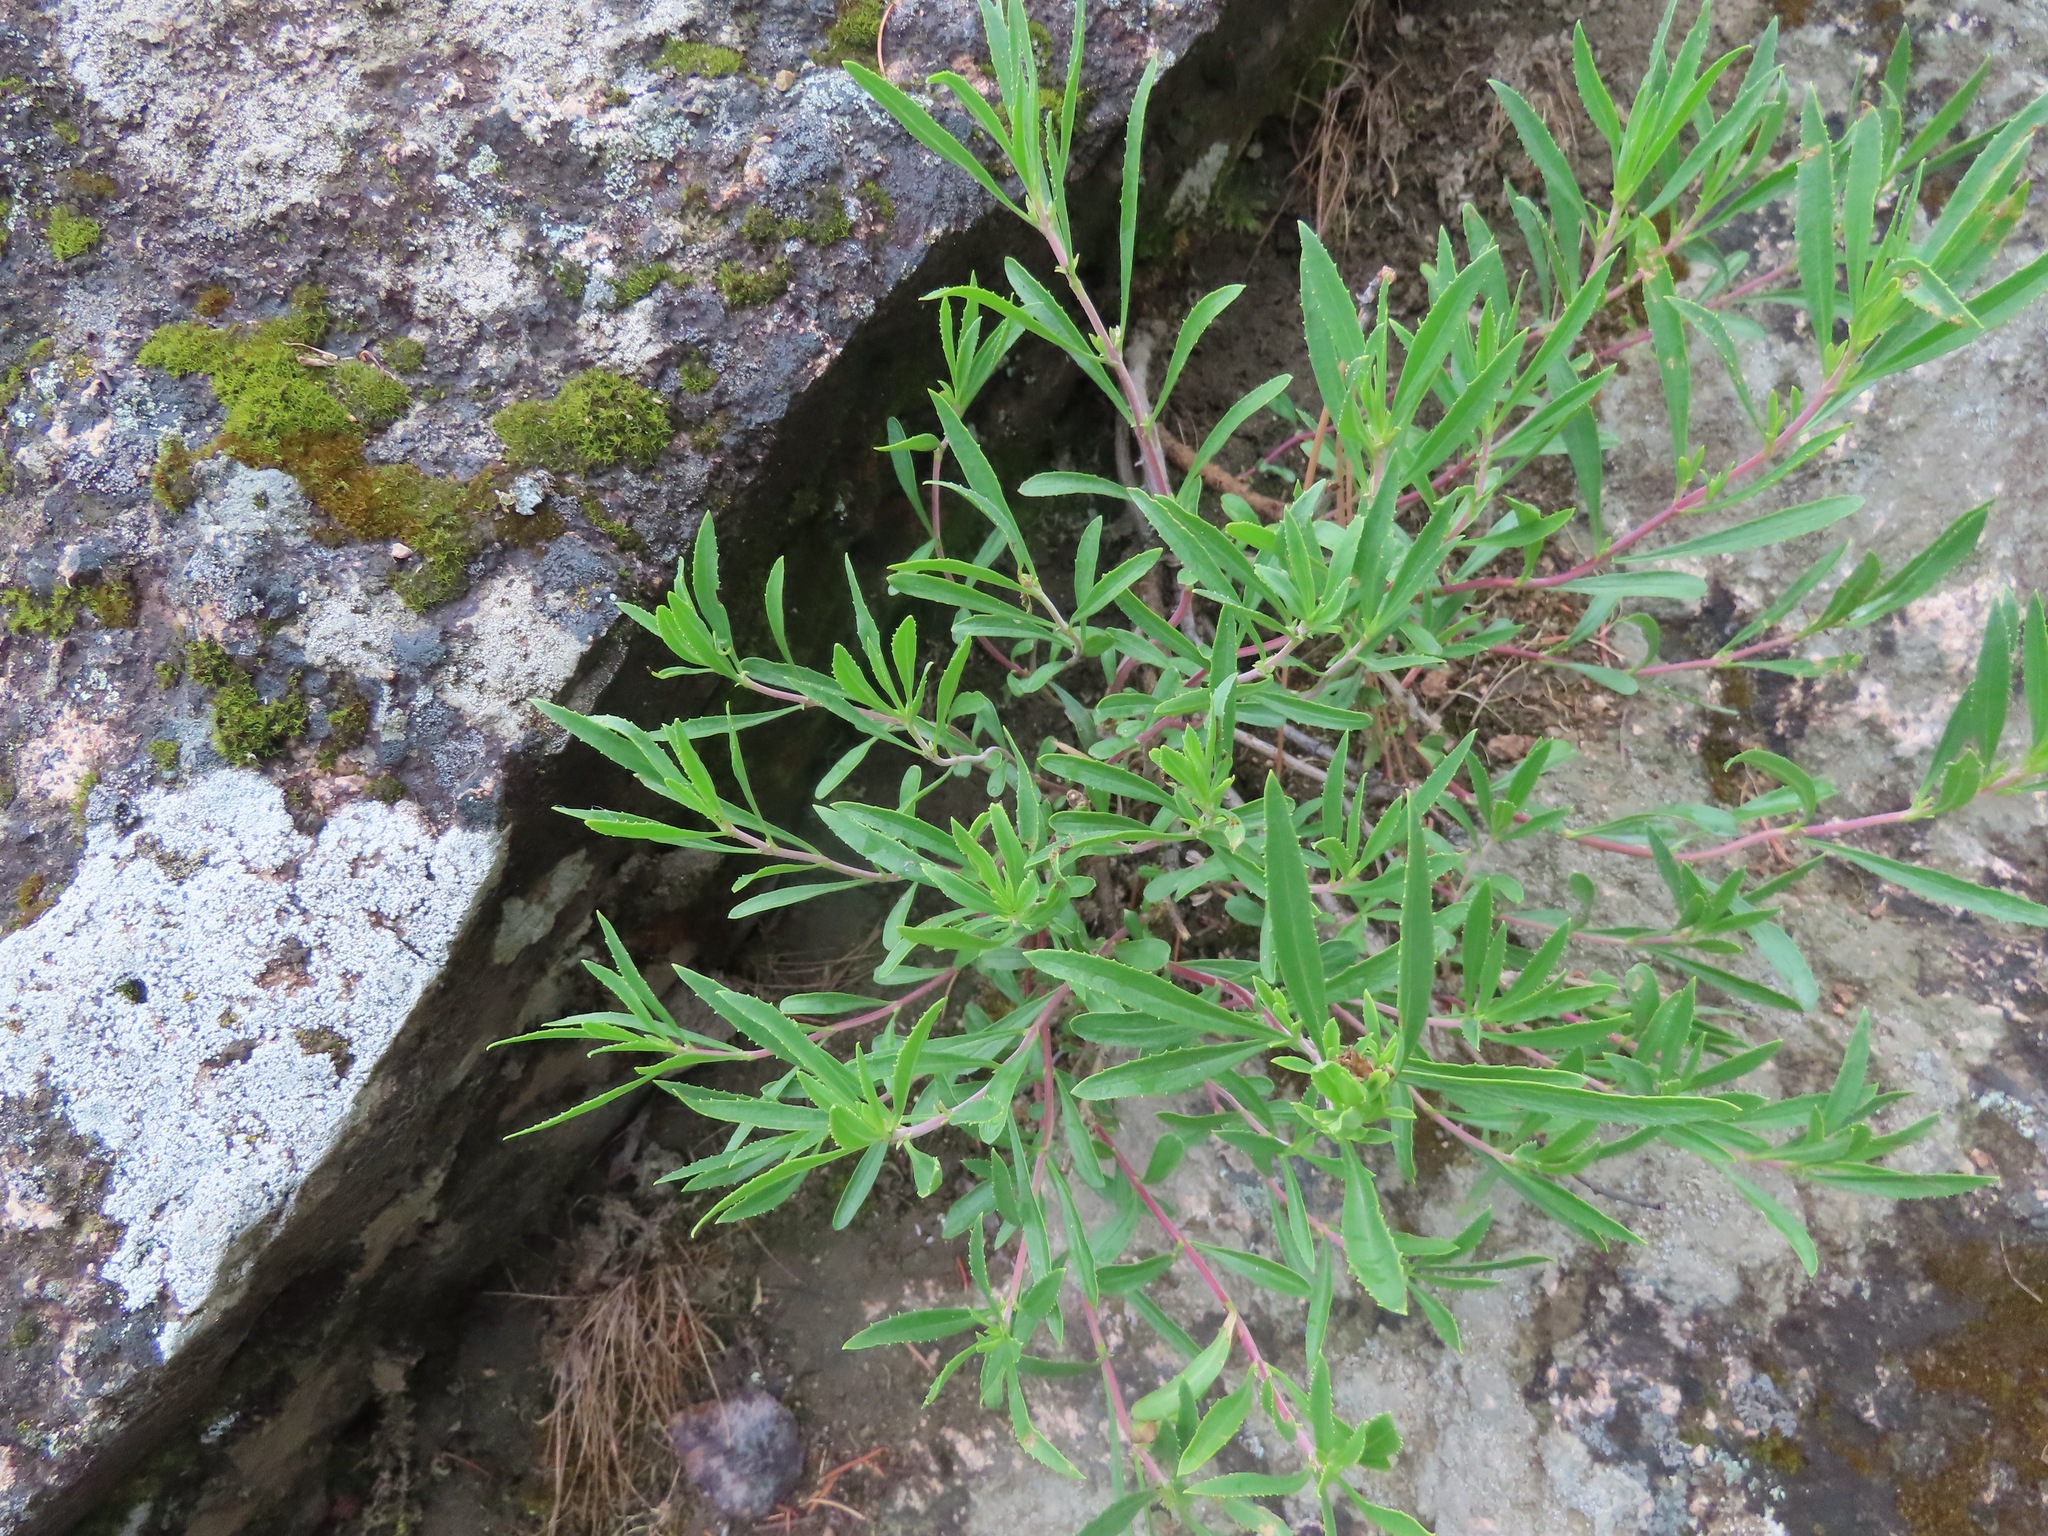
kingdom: Plantae
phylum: Tracheophyta
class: Magnoliopsida
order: Lamiales
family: Plantaginaceae
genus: Penstemon
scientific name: Penstemon fruticosus
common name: Bush penstemon
